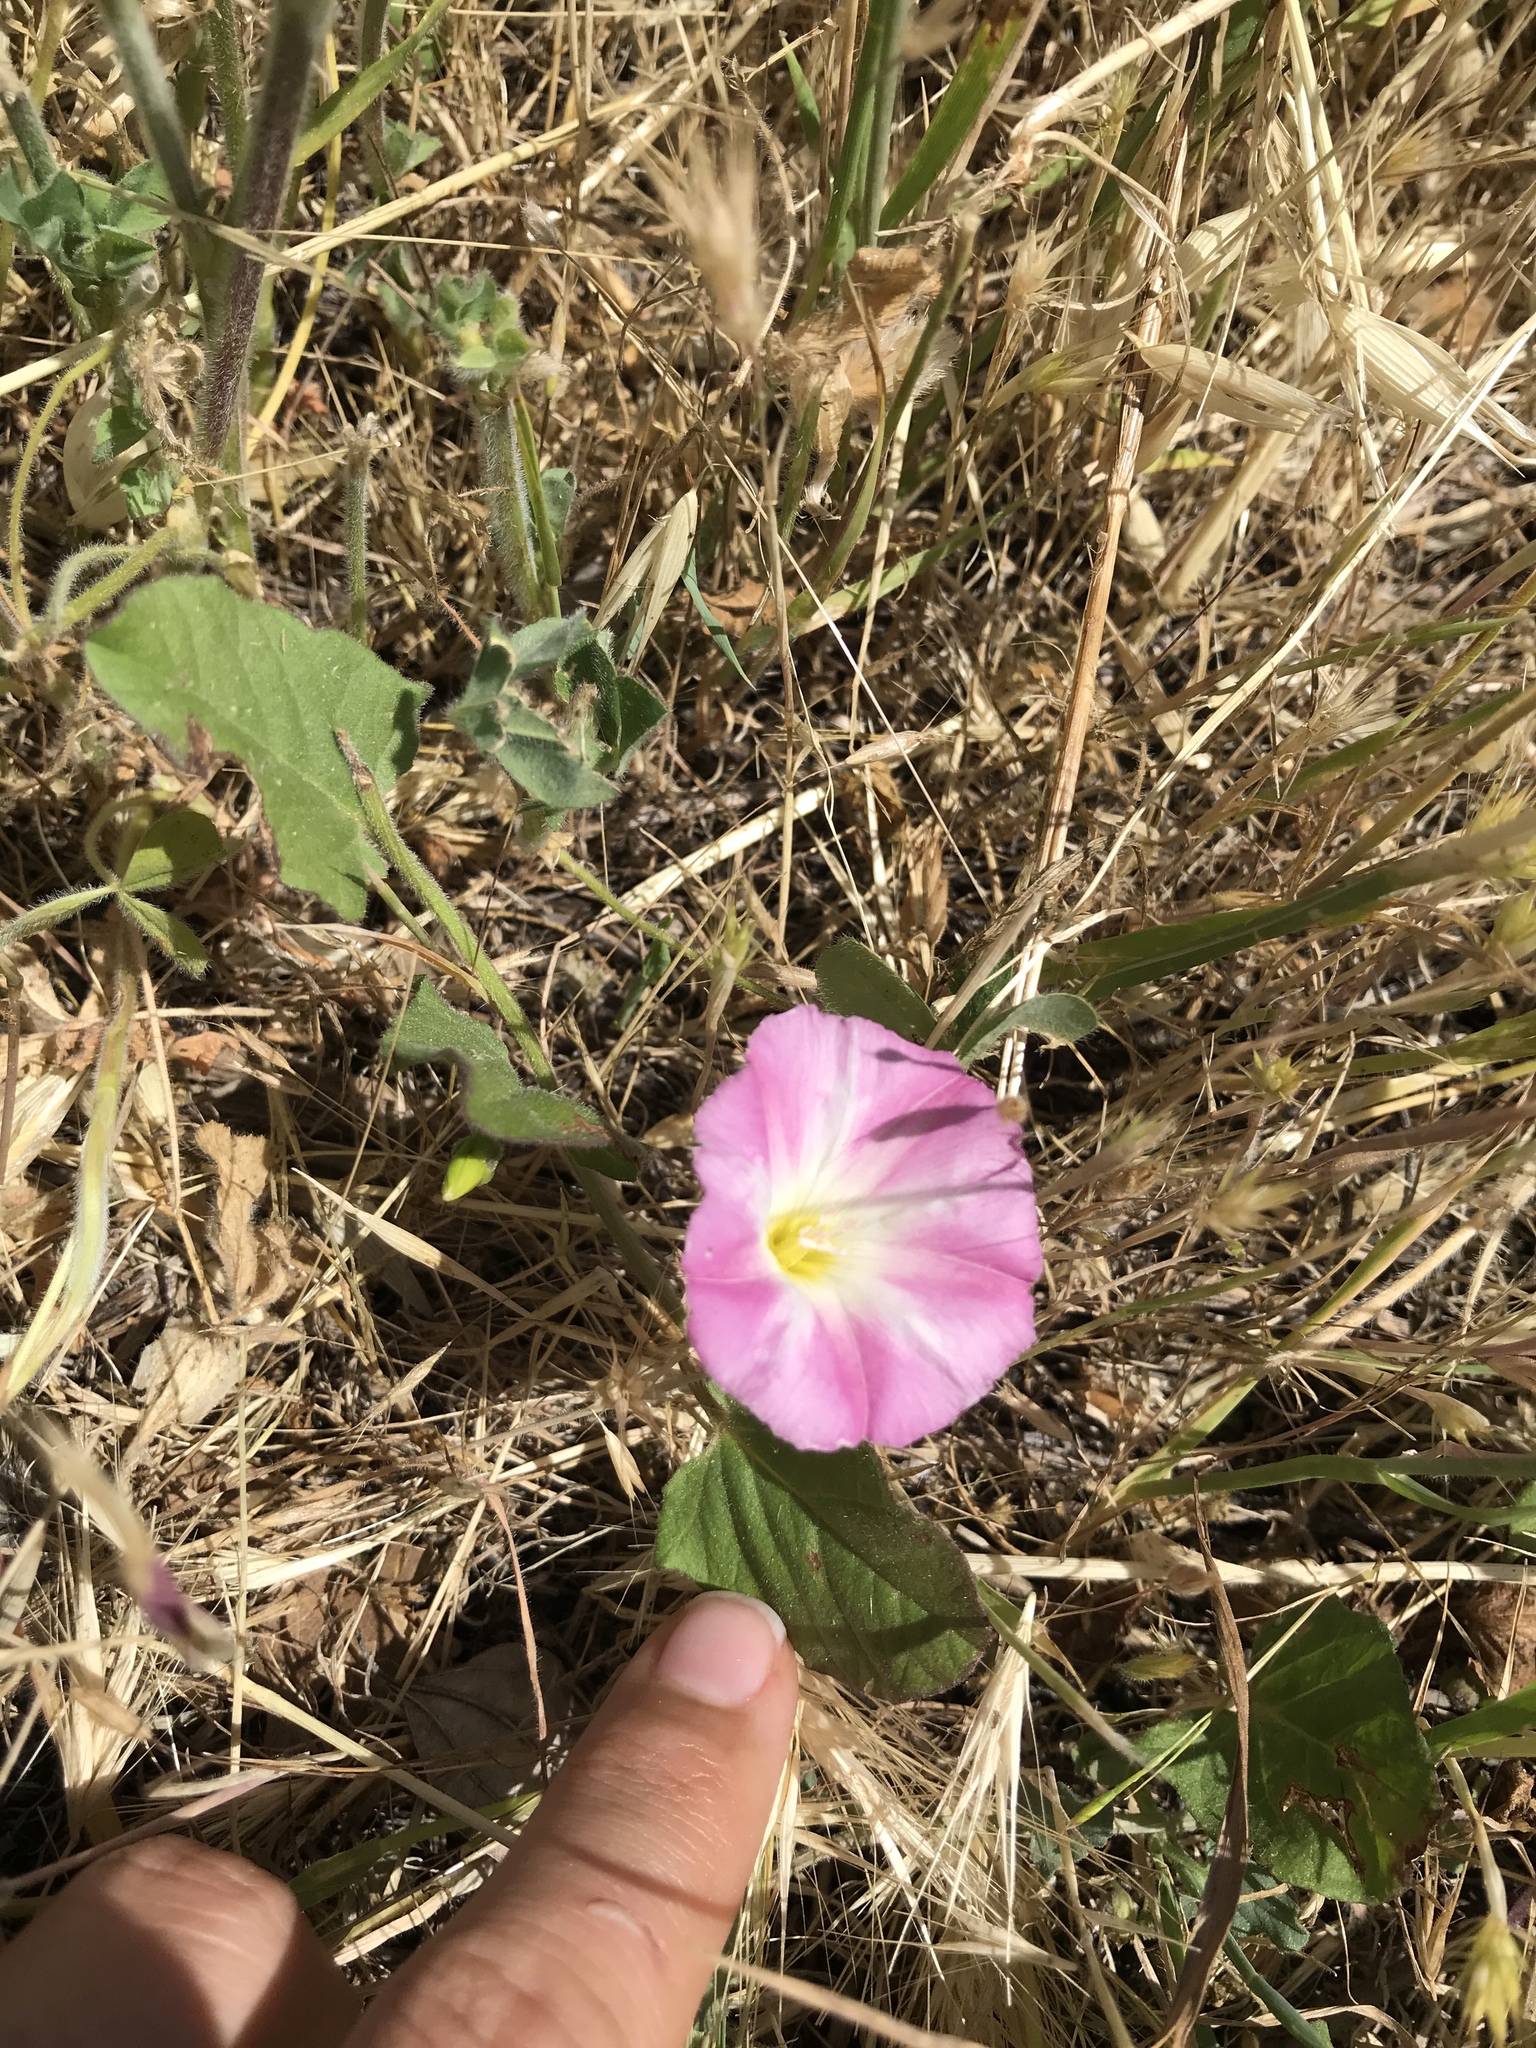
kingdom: Plantae
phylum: Tracheophyta
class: Magnoliopsida
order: Solanales
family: Convolvulaceae
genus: Convolvulus
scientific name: Convolvulus arvensis
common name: Field bindweed
